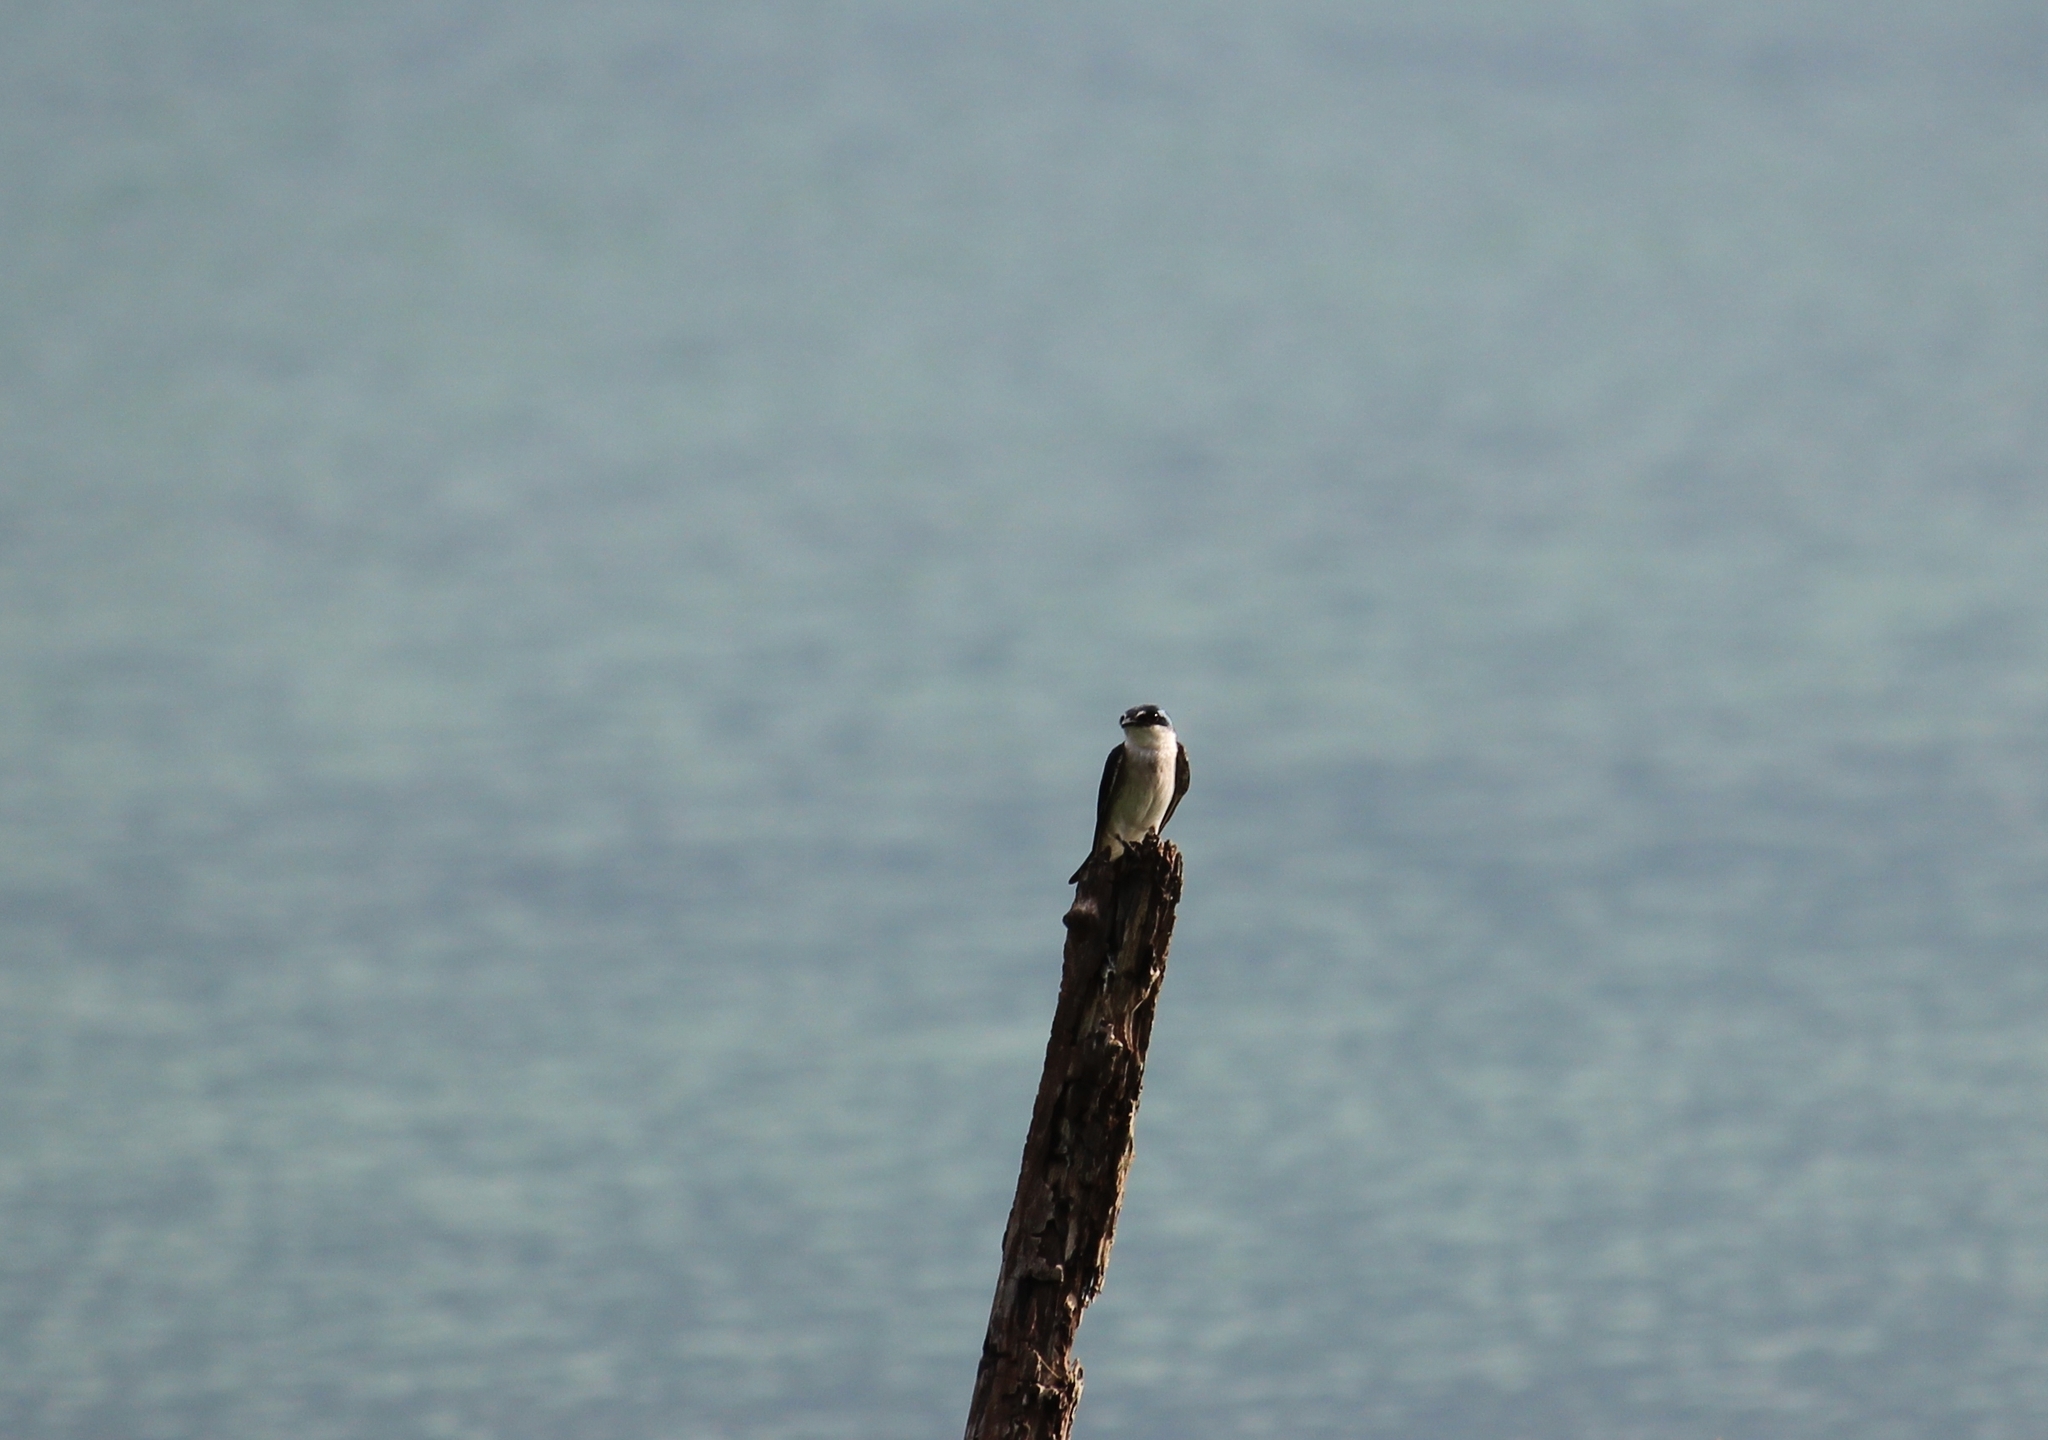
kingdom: Animalia
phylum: Chordata
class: Aves
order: Passeriformes
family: Hirundinidae
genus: Tachycineta
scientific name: Tachycineta albilinea
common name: Mangrove swallow
